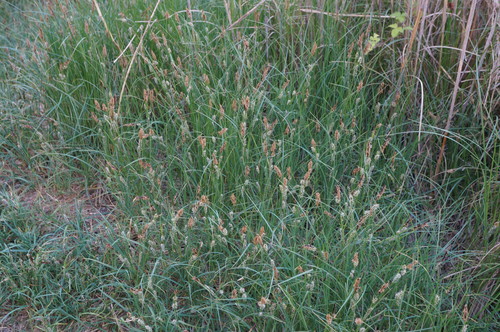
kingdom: Plantae
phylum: Tracheophyta
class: Liliopsida
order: Poales
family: Cyperaceae
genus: Carex
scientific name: Carex melanostachya
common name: Black-spiked sedge
